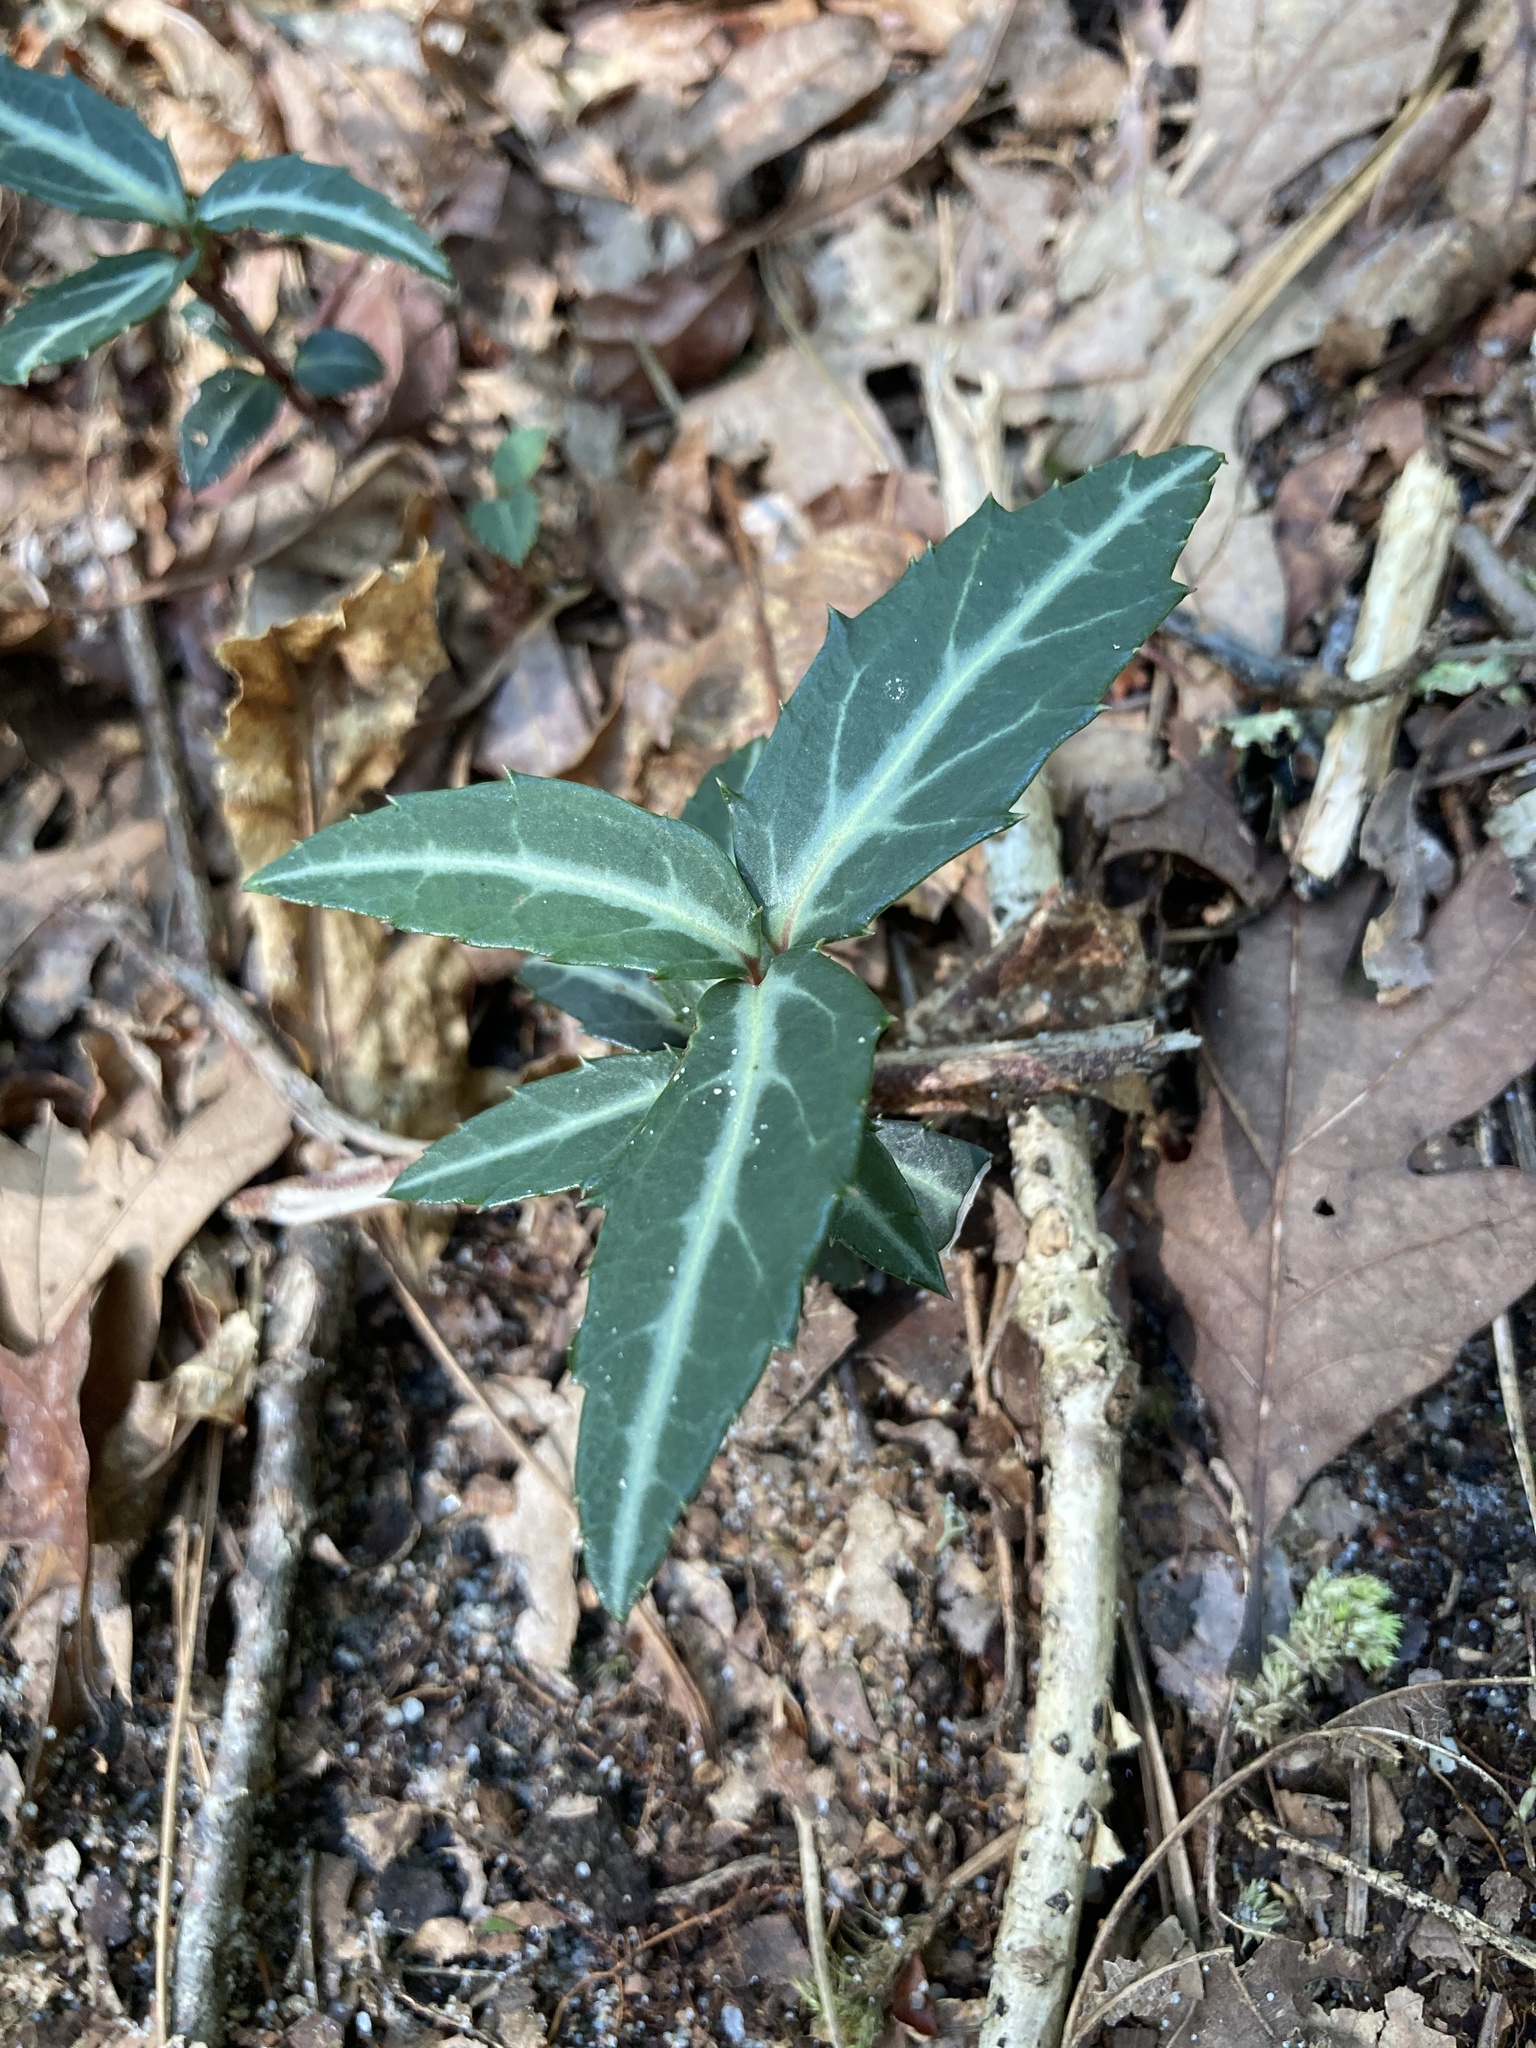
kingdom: Plantae
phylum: Tracheophyta
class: Magnoliopsida
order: Ericales
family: Ericaceae
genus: Chimaphila
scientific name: Chimaphila maculata
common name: Spotted pipsissewa
